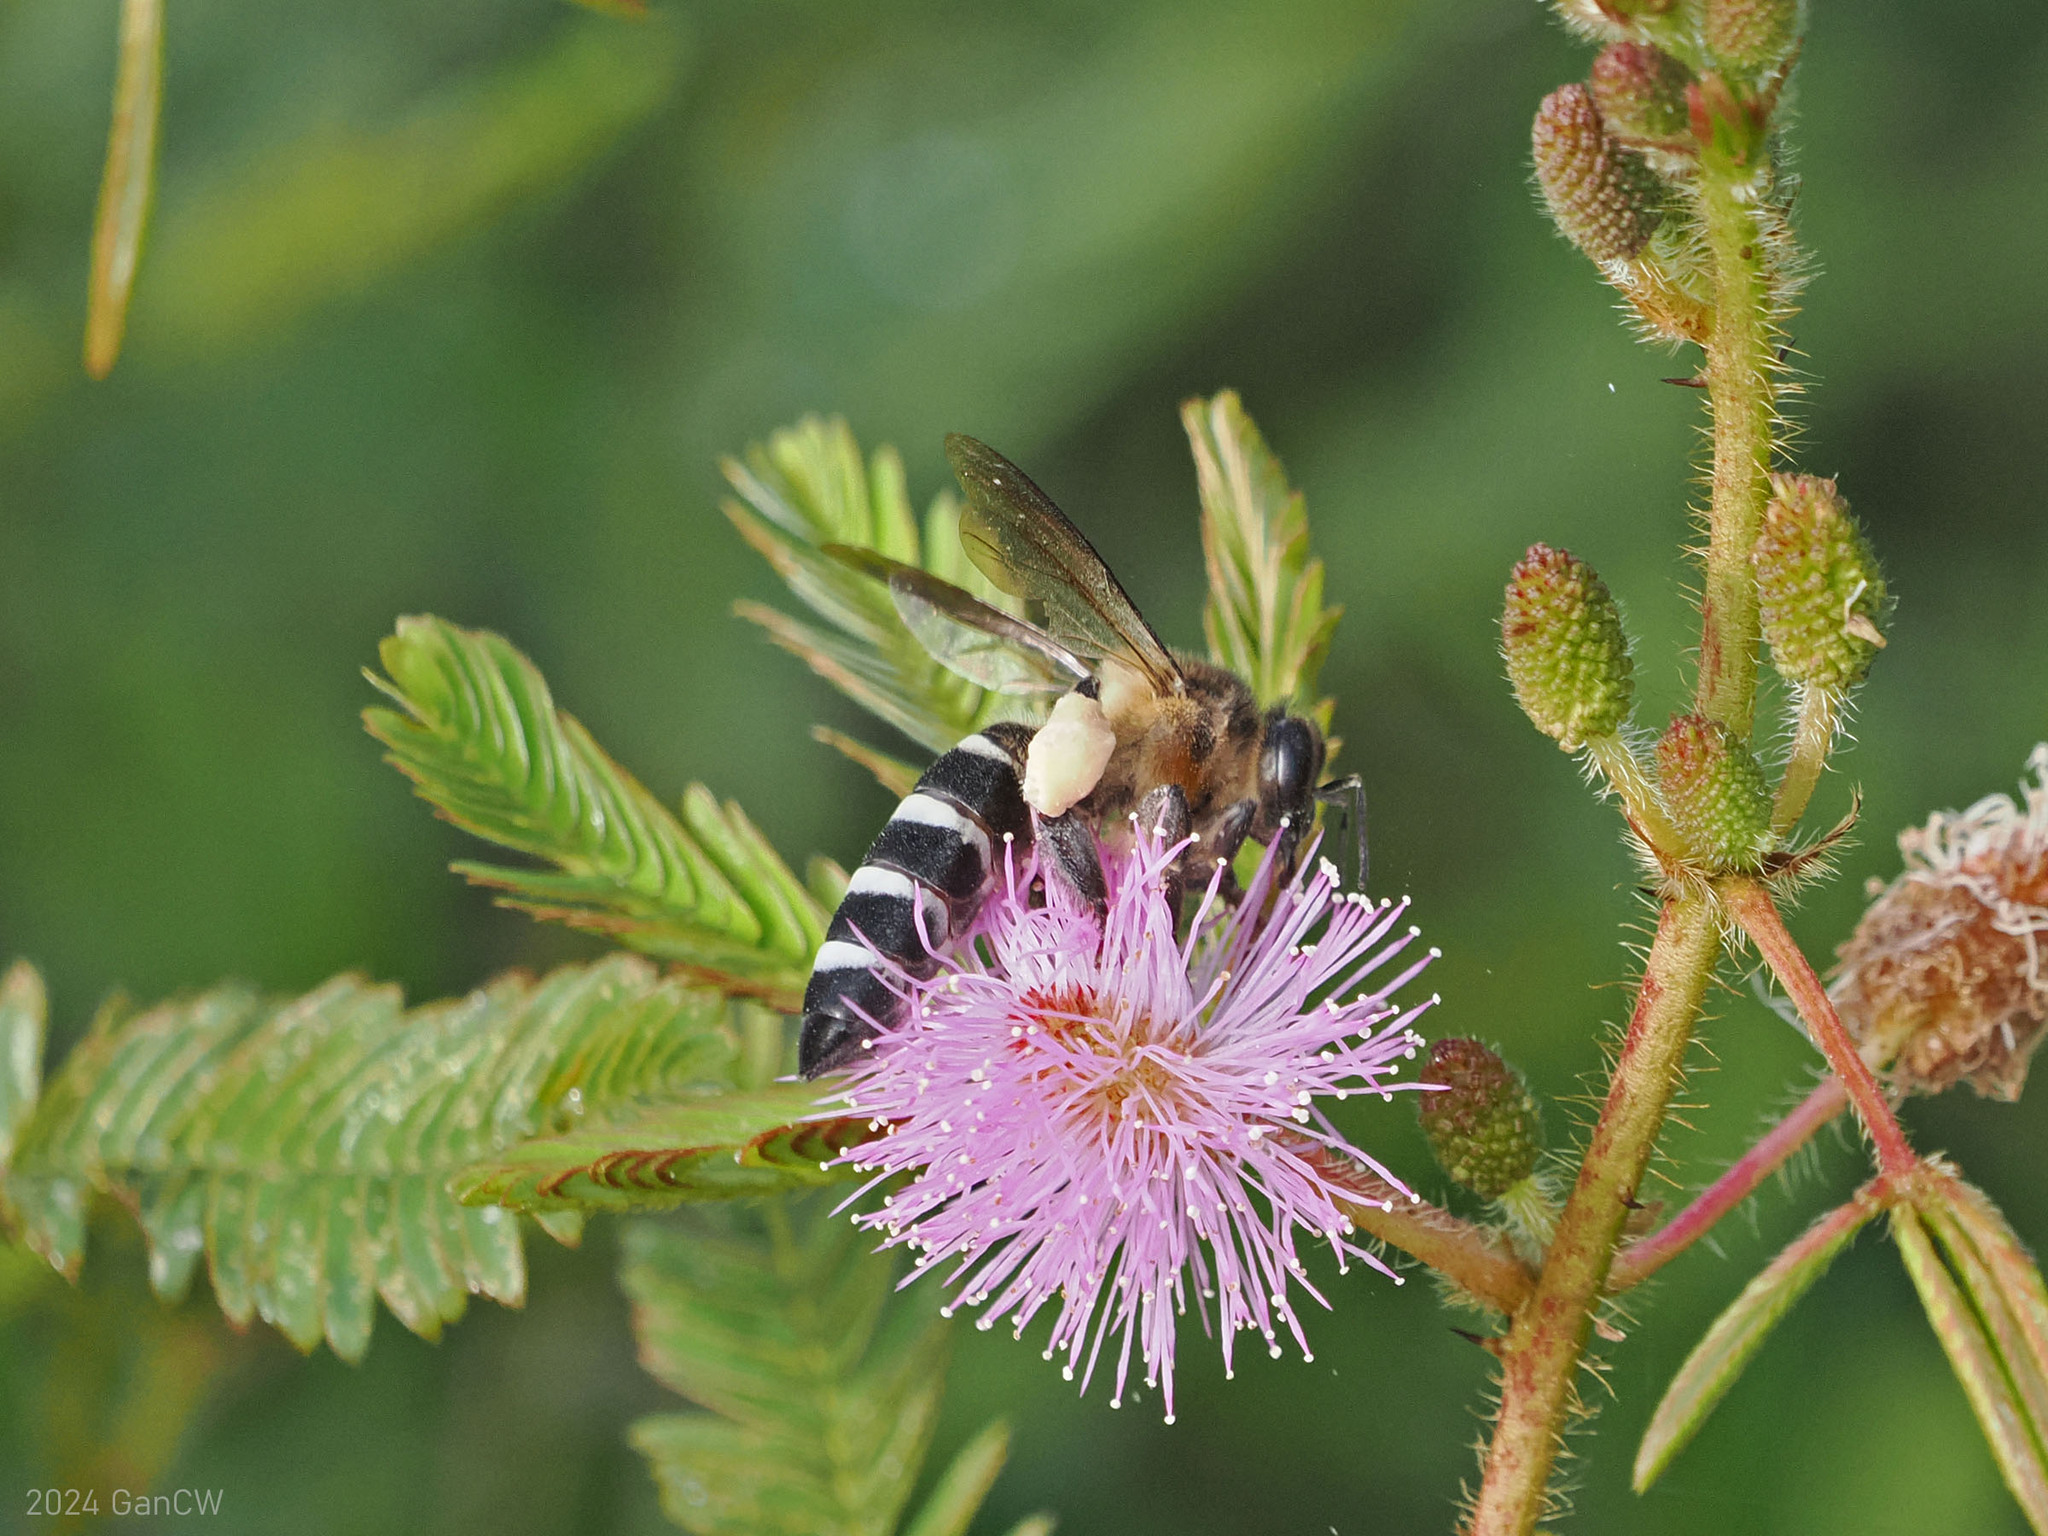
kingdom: Animalia
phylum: Arthropoda
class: Insecta
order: Hymenoptera
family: Apidae
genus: Apis
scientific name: Apis dorsata
